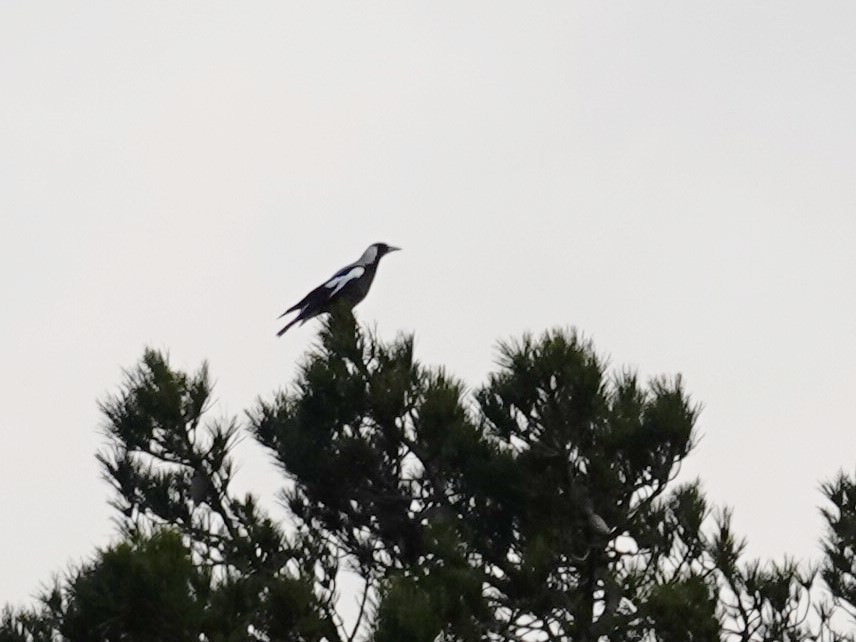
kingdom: Animalia
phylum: Chordata
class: Aves
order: Passeriformes
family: Cracticidae
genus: Gymnorhina
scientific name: Gymnorhina tibicen
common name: Australian magpie
